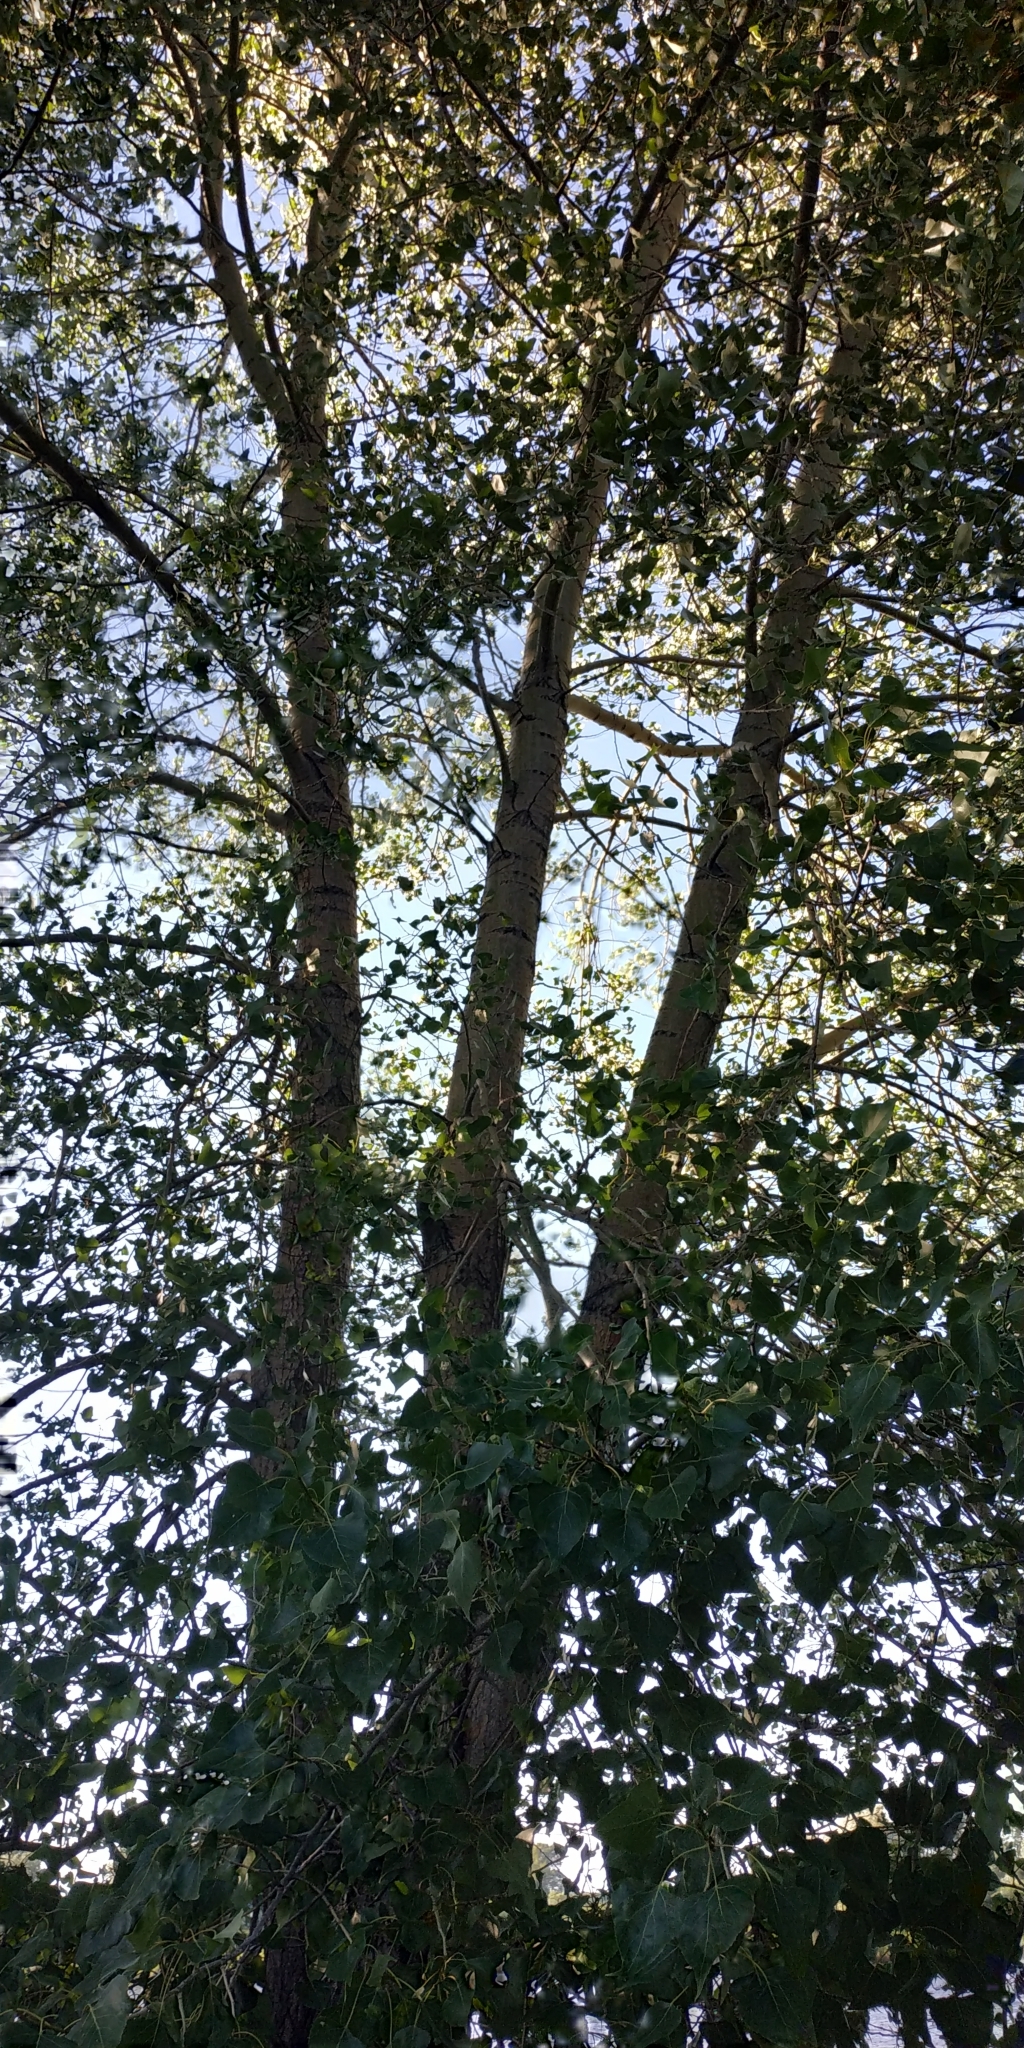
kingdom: Plantae
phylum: Tracheophyta
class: Magnoliopsida
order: Malpighiales
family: Salicaceae
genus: Populus
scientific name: Populus nigra
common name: Black poplar
